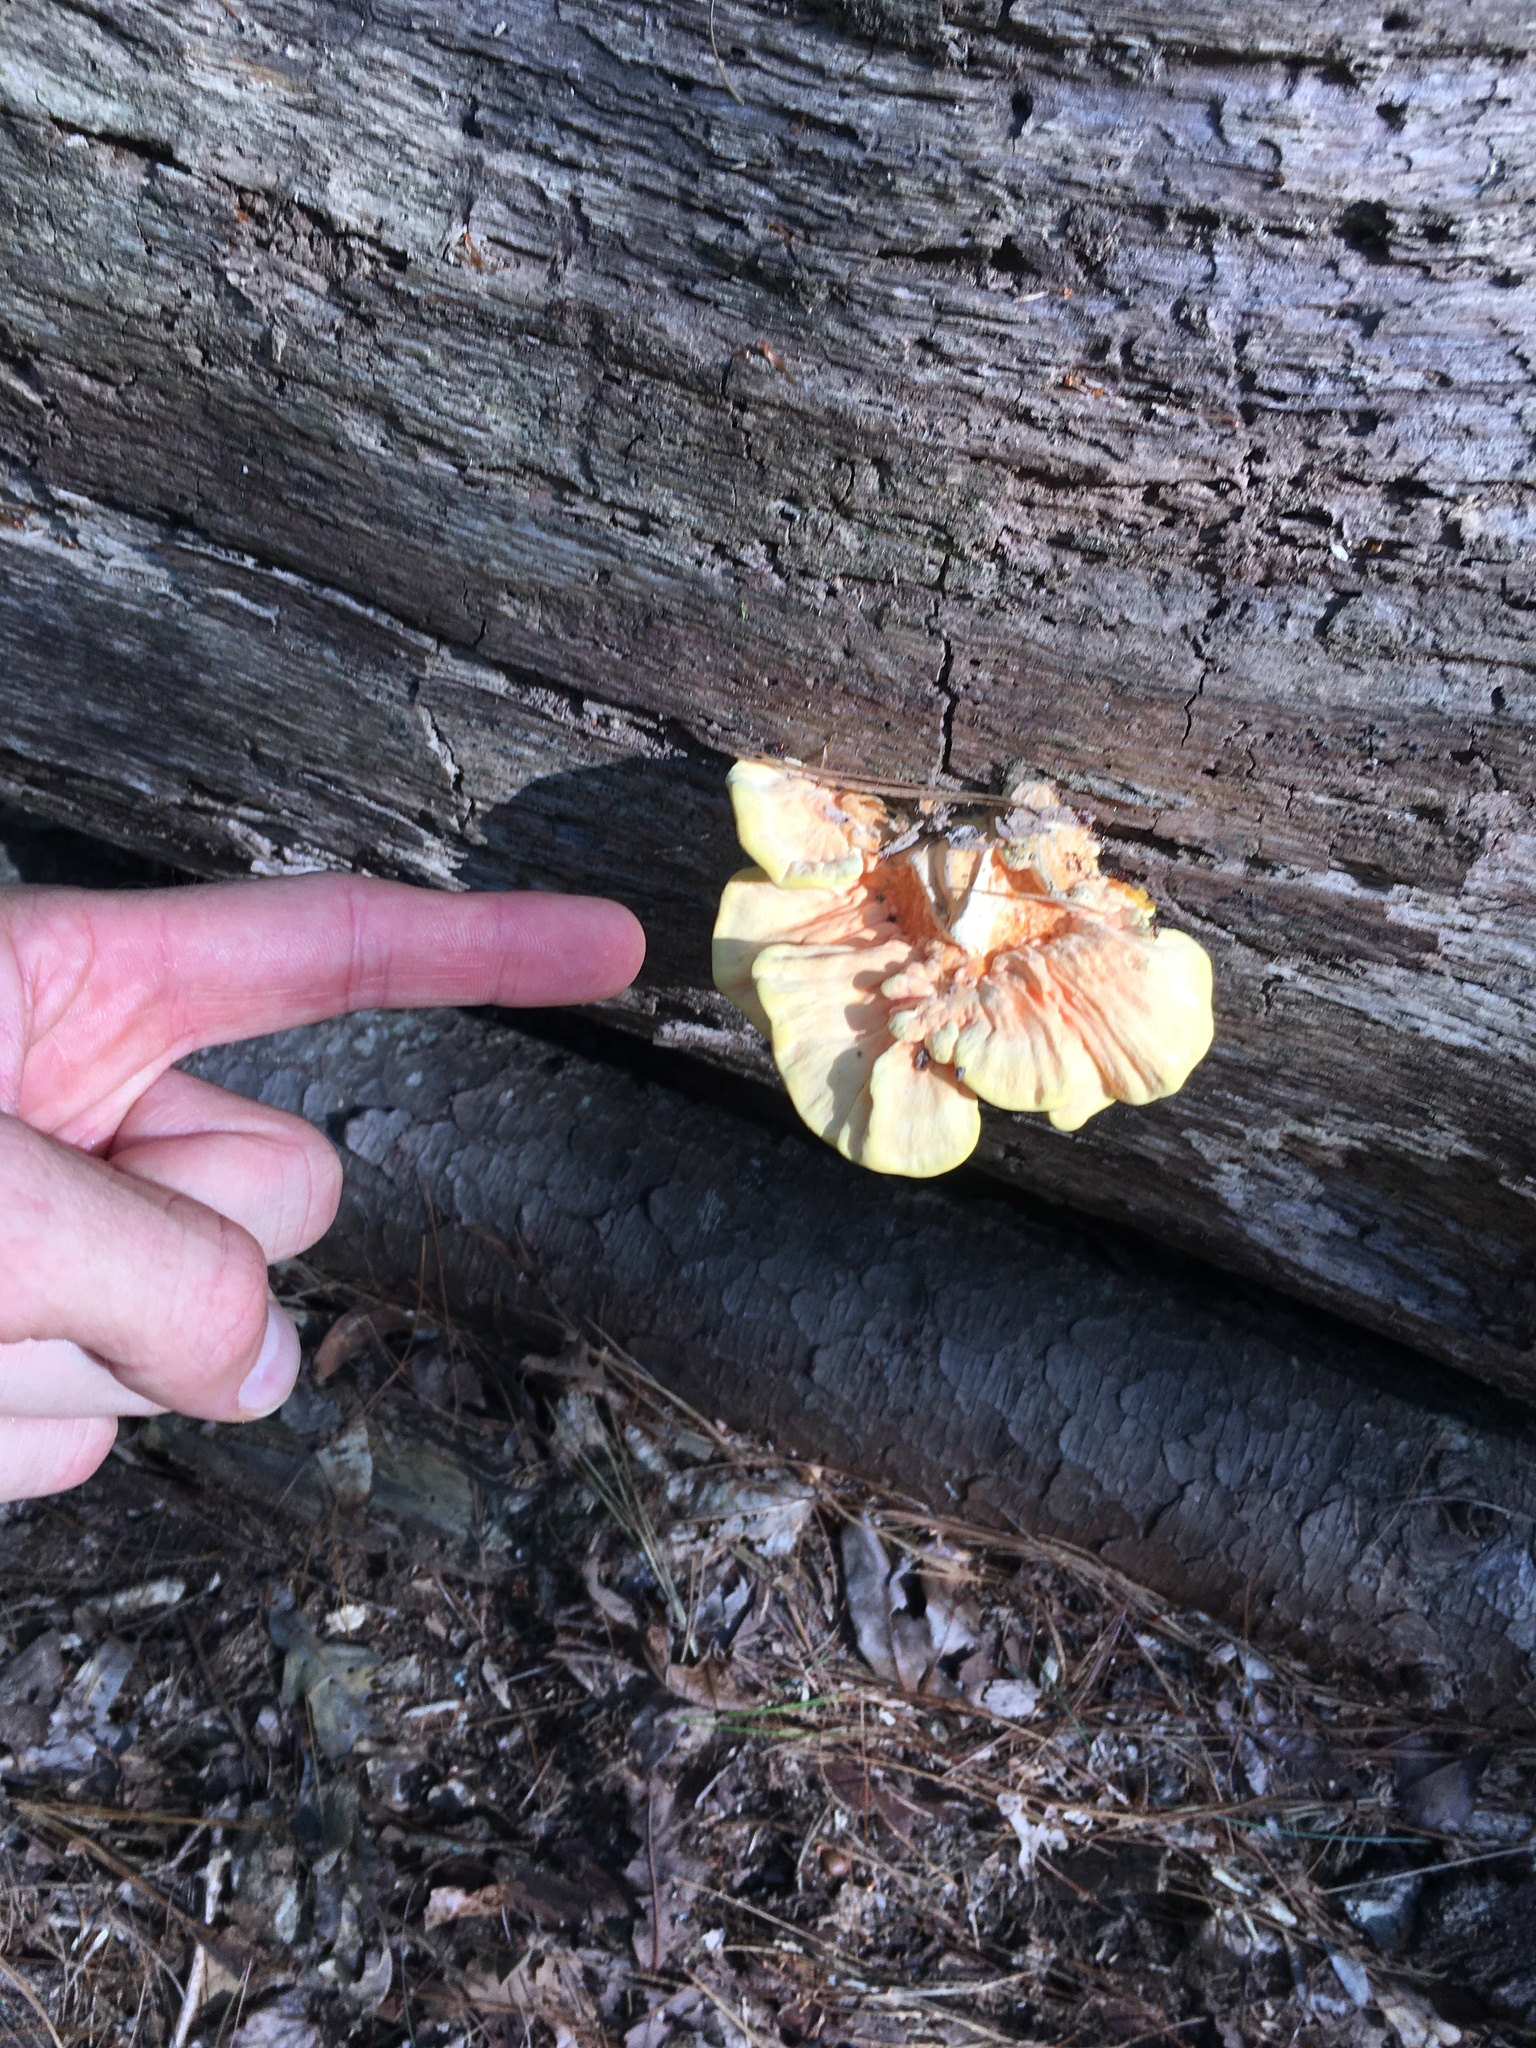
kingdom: Fungi
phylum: Basidiomycota
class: Agaricomycetes
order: Polyporales
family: Laetiporaceae
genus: Laetiporus
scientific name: Laetiporus sulphureus
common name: Chicken of the woods
